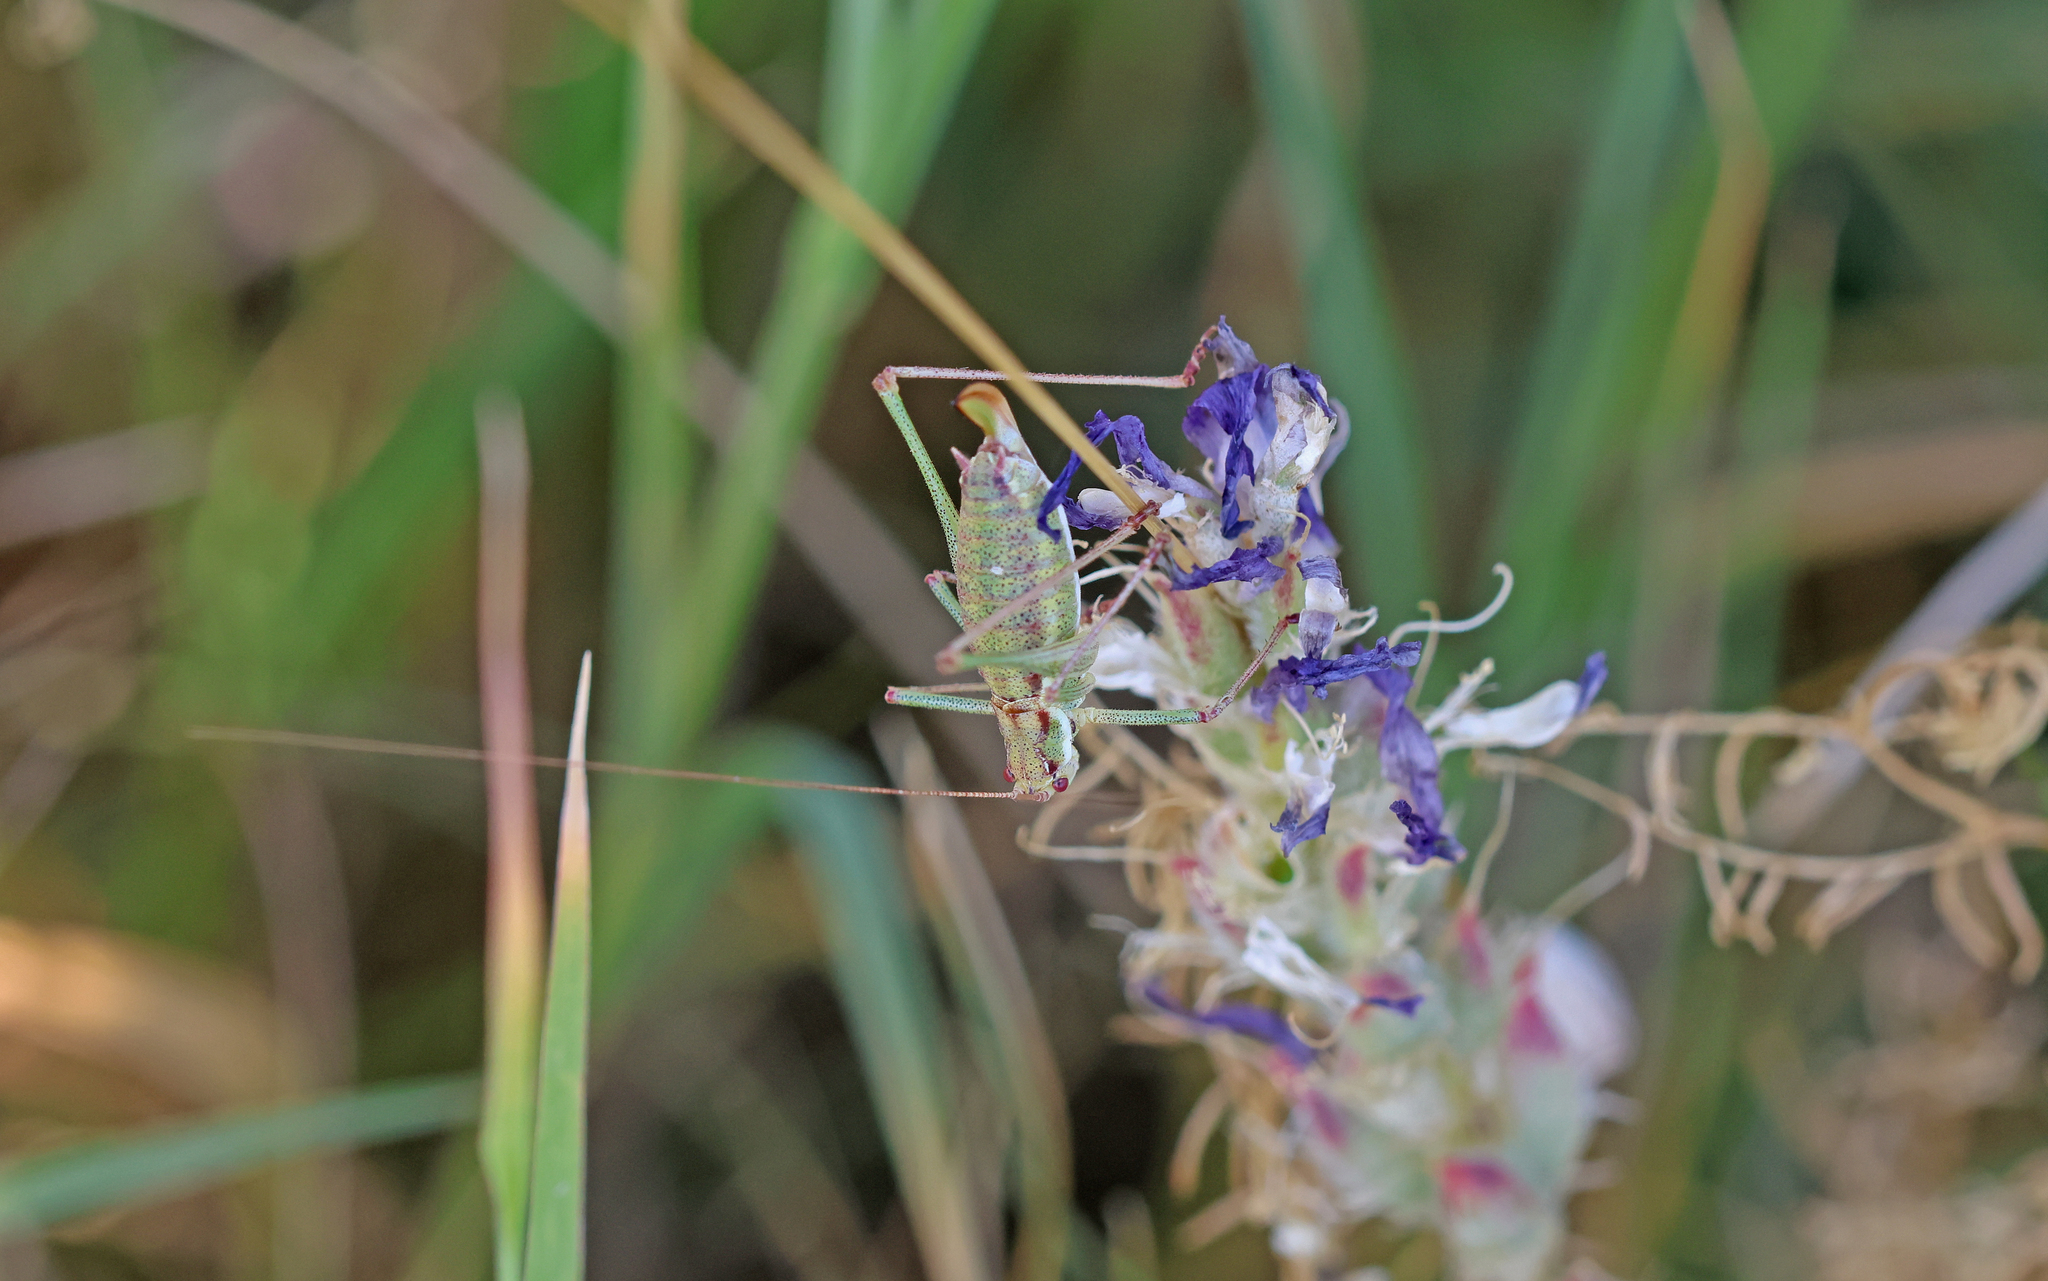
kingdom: Animalia
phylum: Arthropoda
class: Insecta
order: Orthoptera
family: Tettigoniidae
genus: Leptophyes
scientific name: Leptophyes albovittata
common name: Striped bush-cricket
